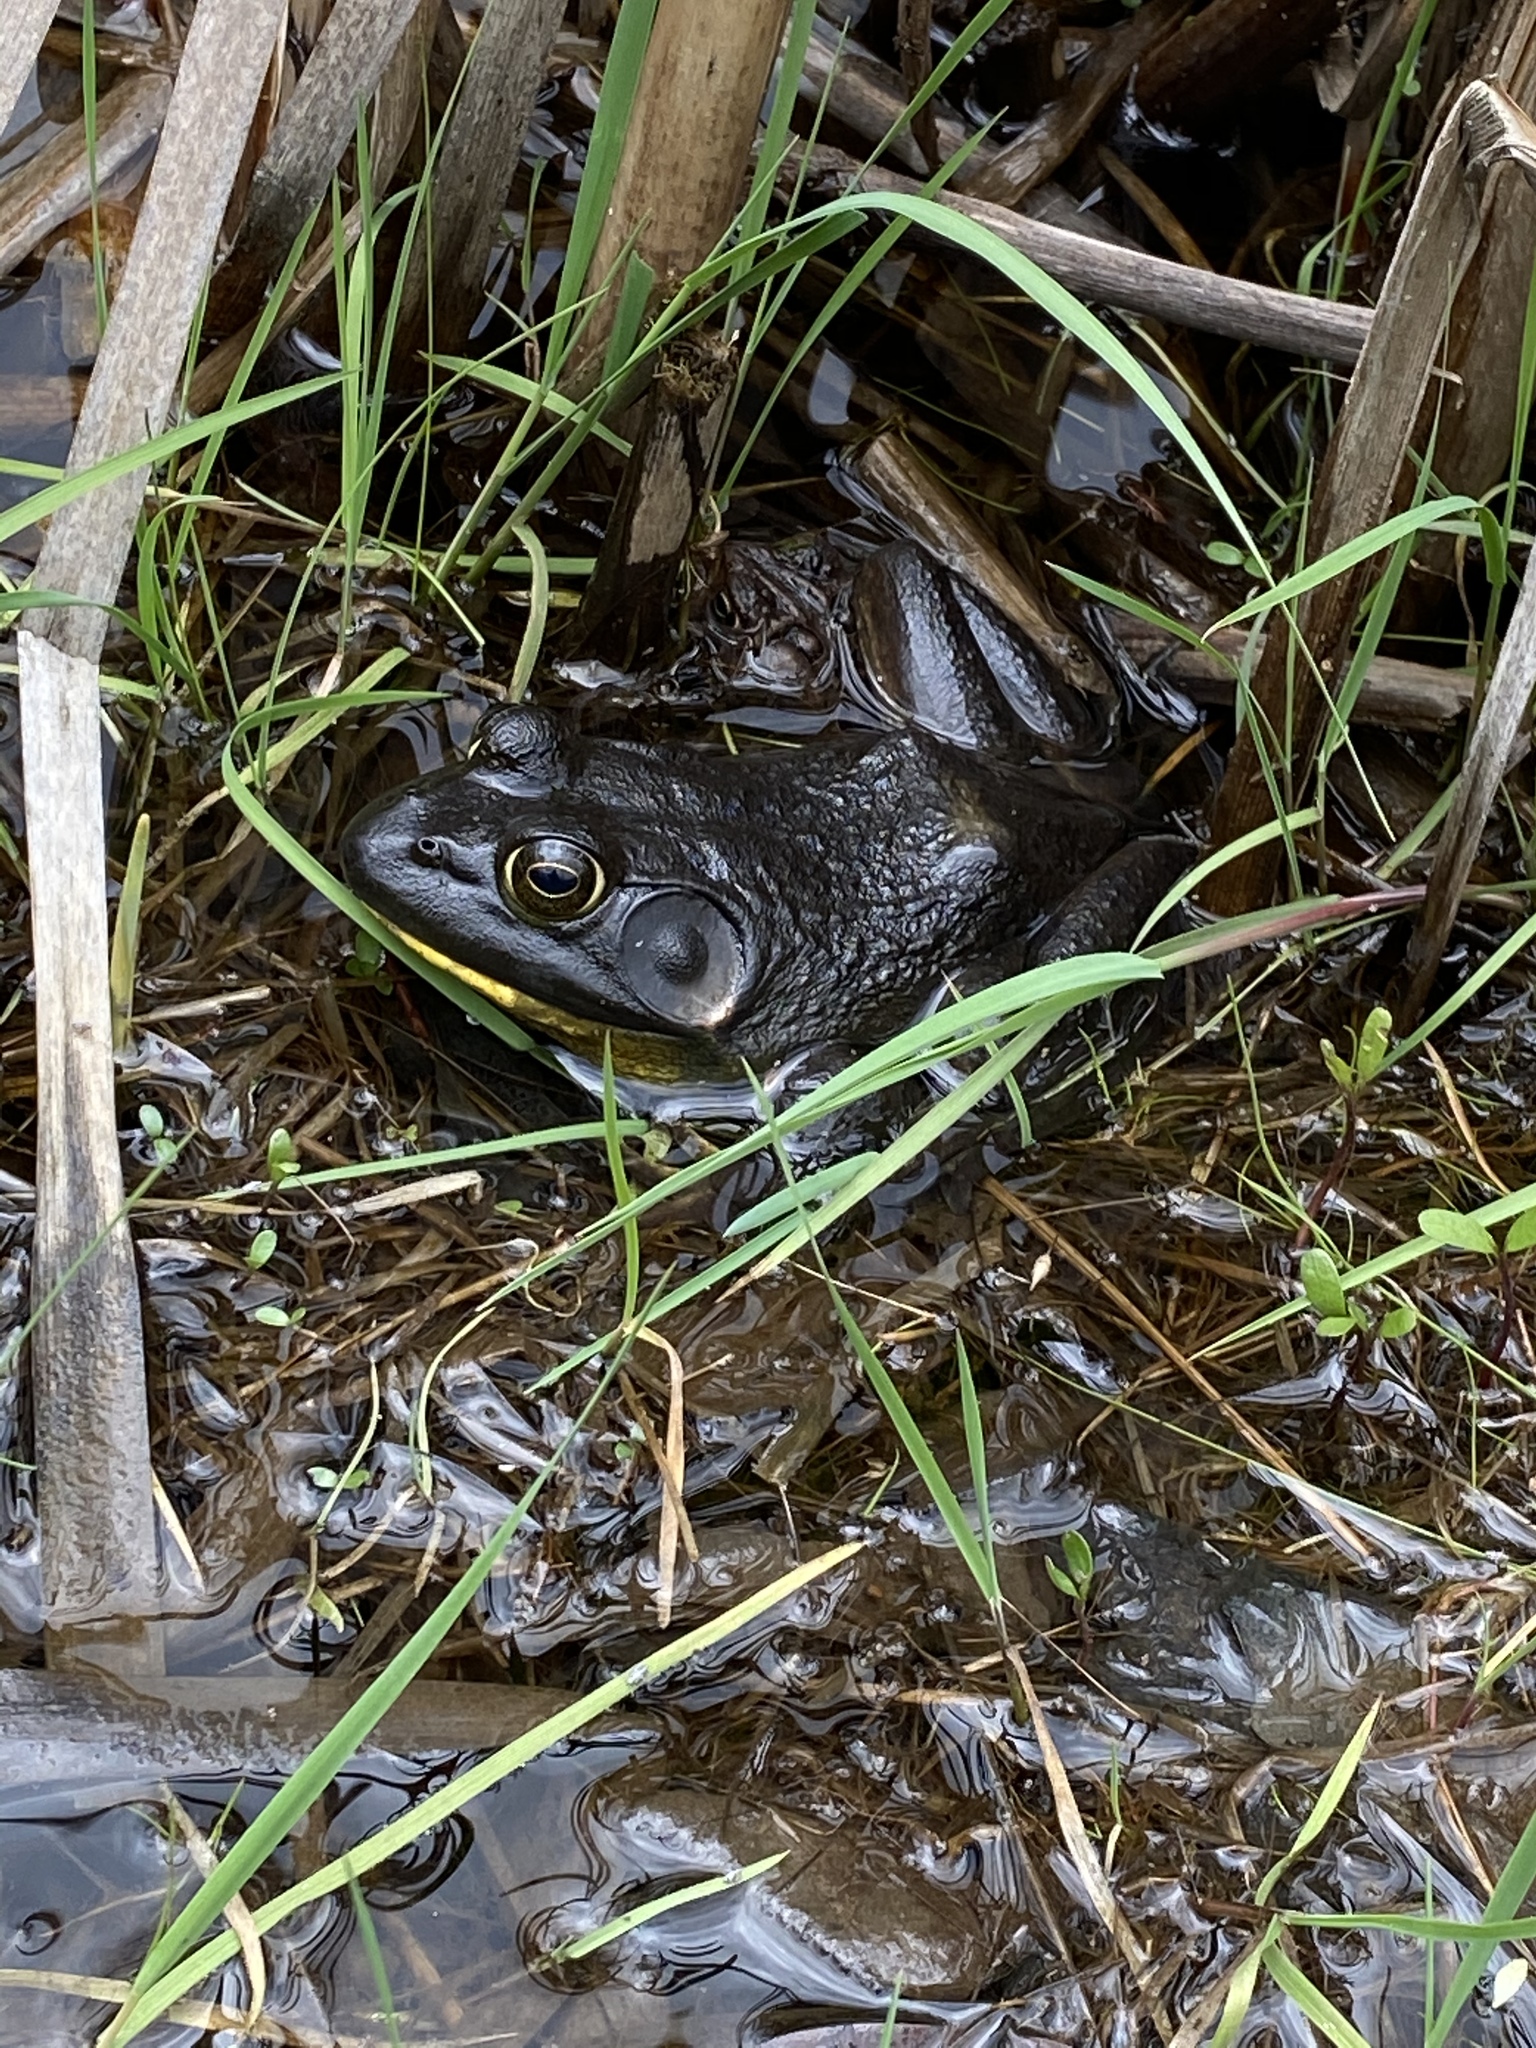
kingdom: Animalia
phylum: Chordata
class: Amphibia
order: Anura
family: Ranidae
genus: Lithobates
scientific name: Lithobates catesbeianus
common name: American bullfrog
